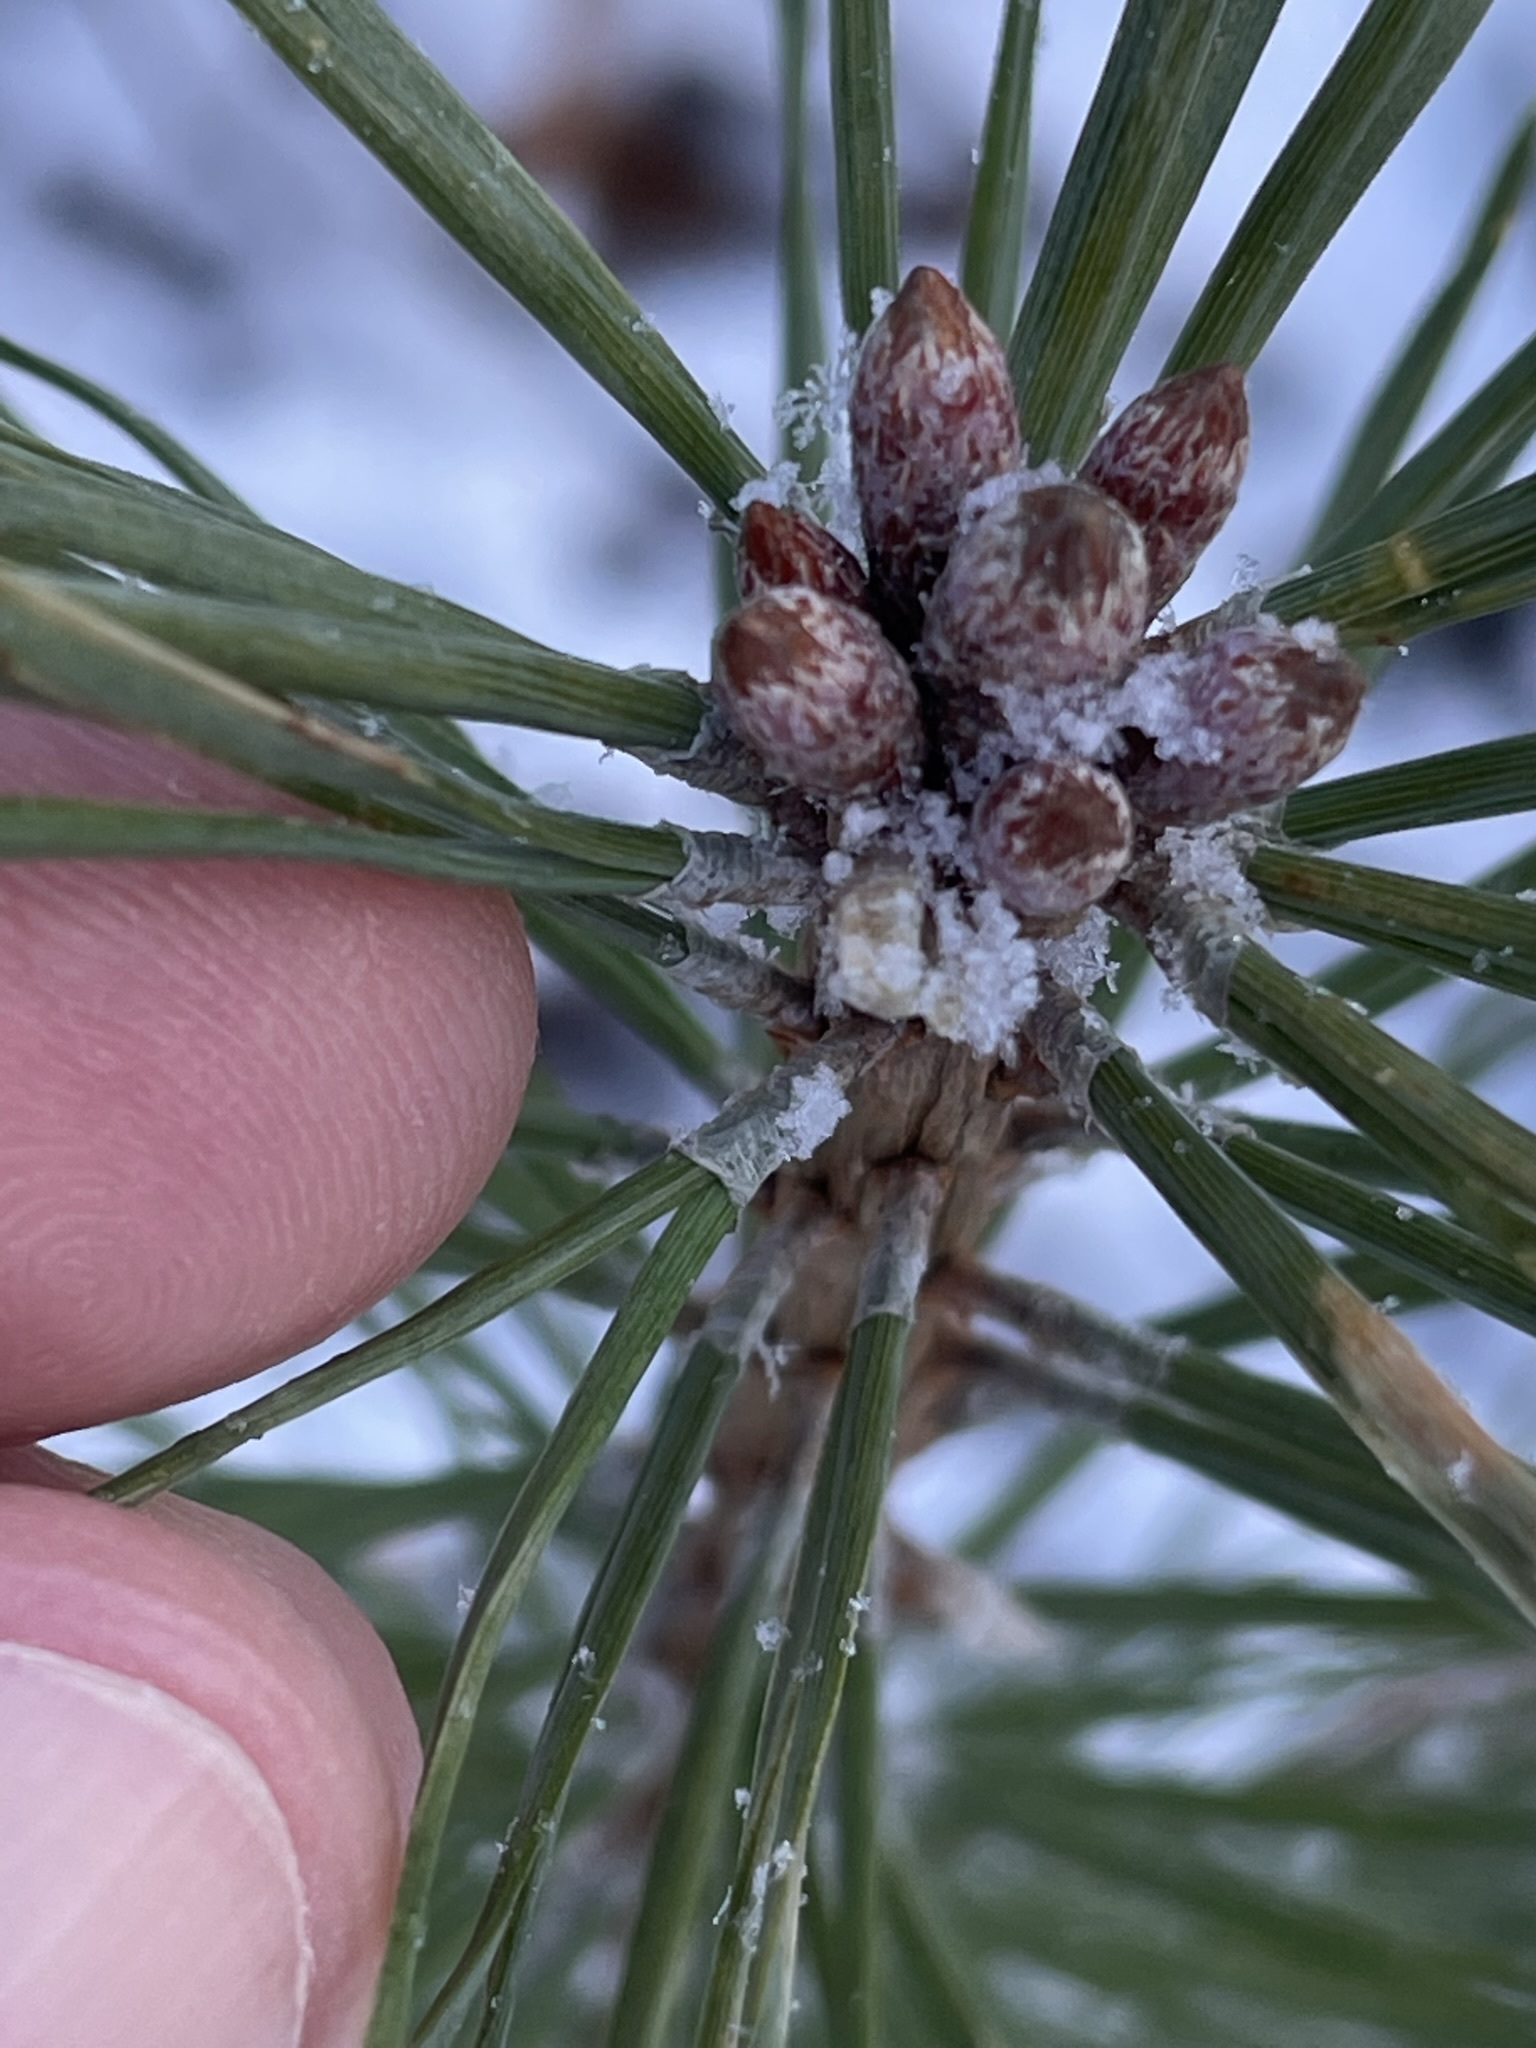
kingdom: Plantae
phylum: Tracheophyta
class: Pinopsida
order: Pinales
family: Pinaceae
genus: Pinus
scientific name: Pinus sylvestris
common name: Scots pine
